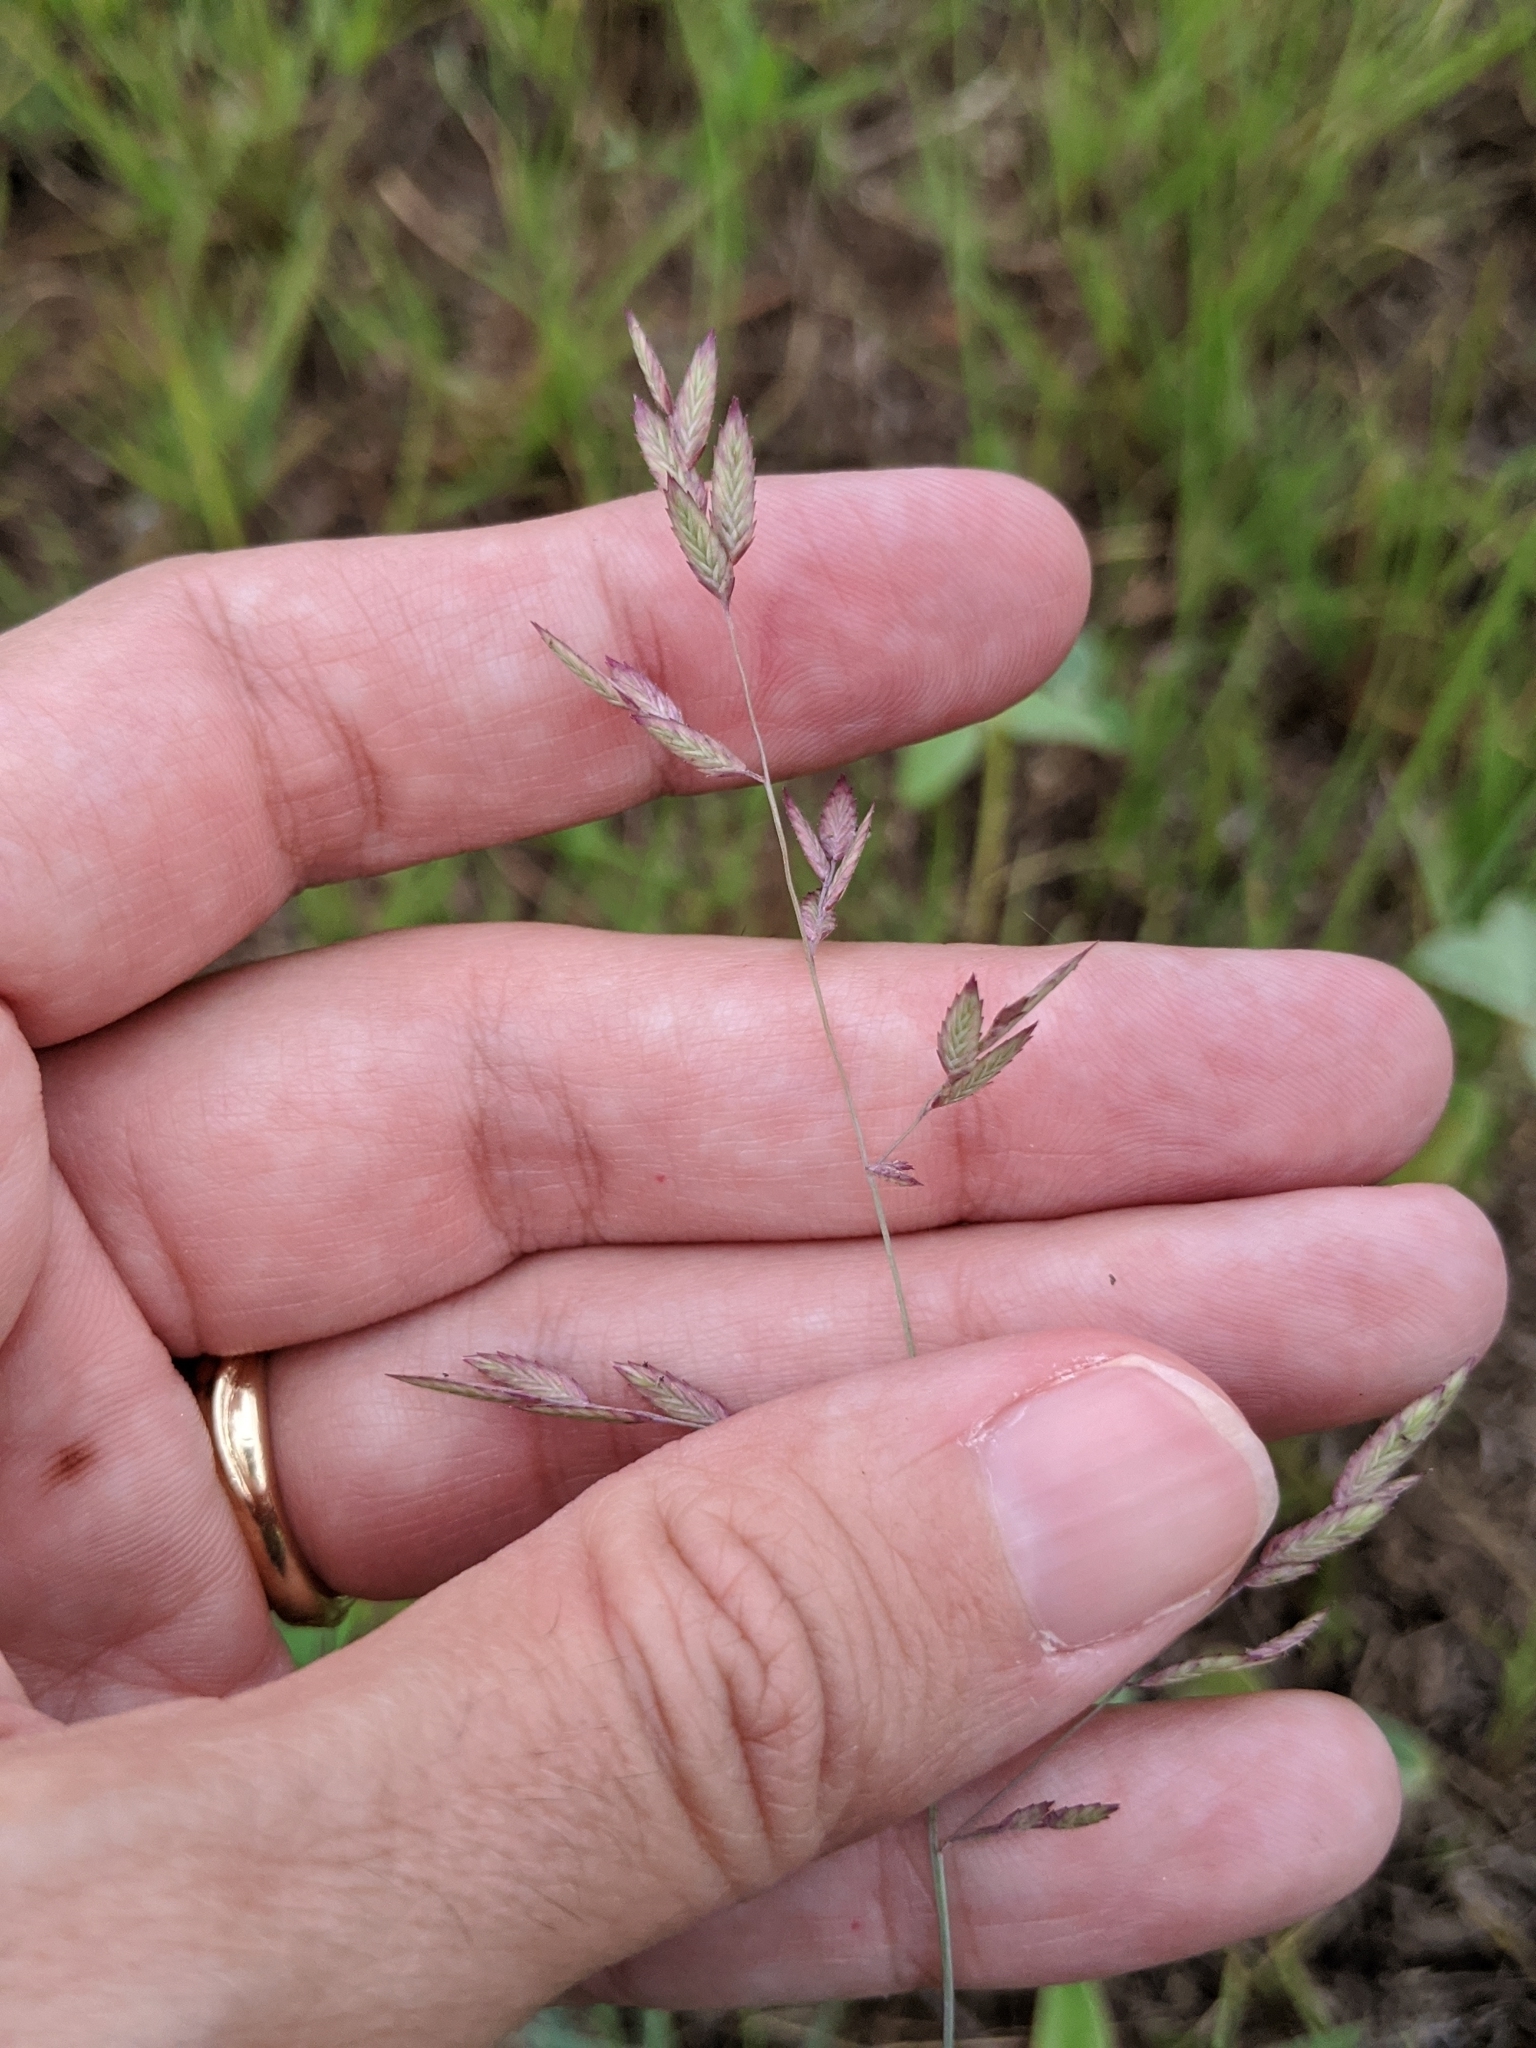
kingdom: Plantae
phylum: Tracheophyta
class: Liliopsida
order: Poales
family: Poaceae
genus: Eragrostis
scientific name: Eragrostis secundiflora
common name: Red love grass
